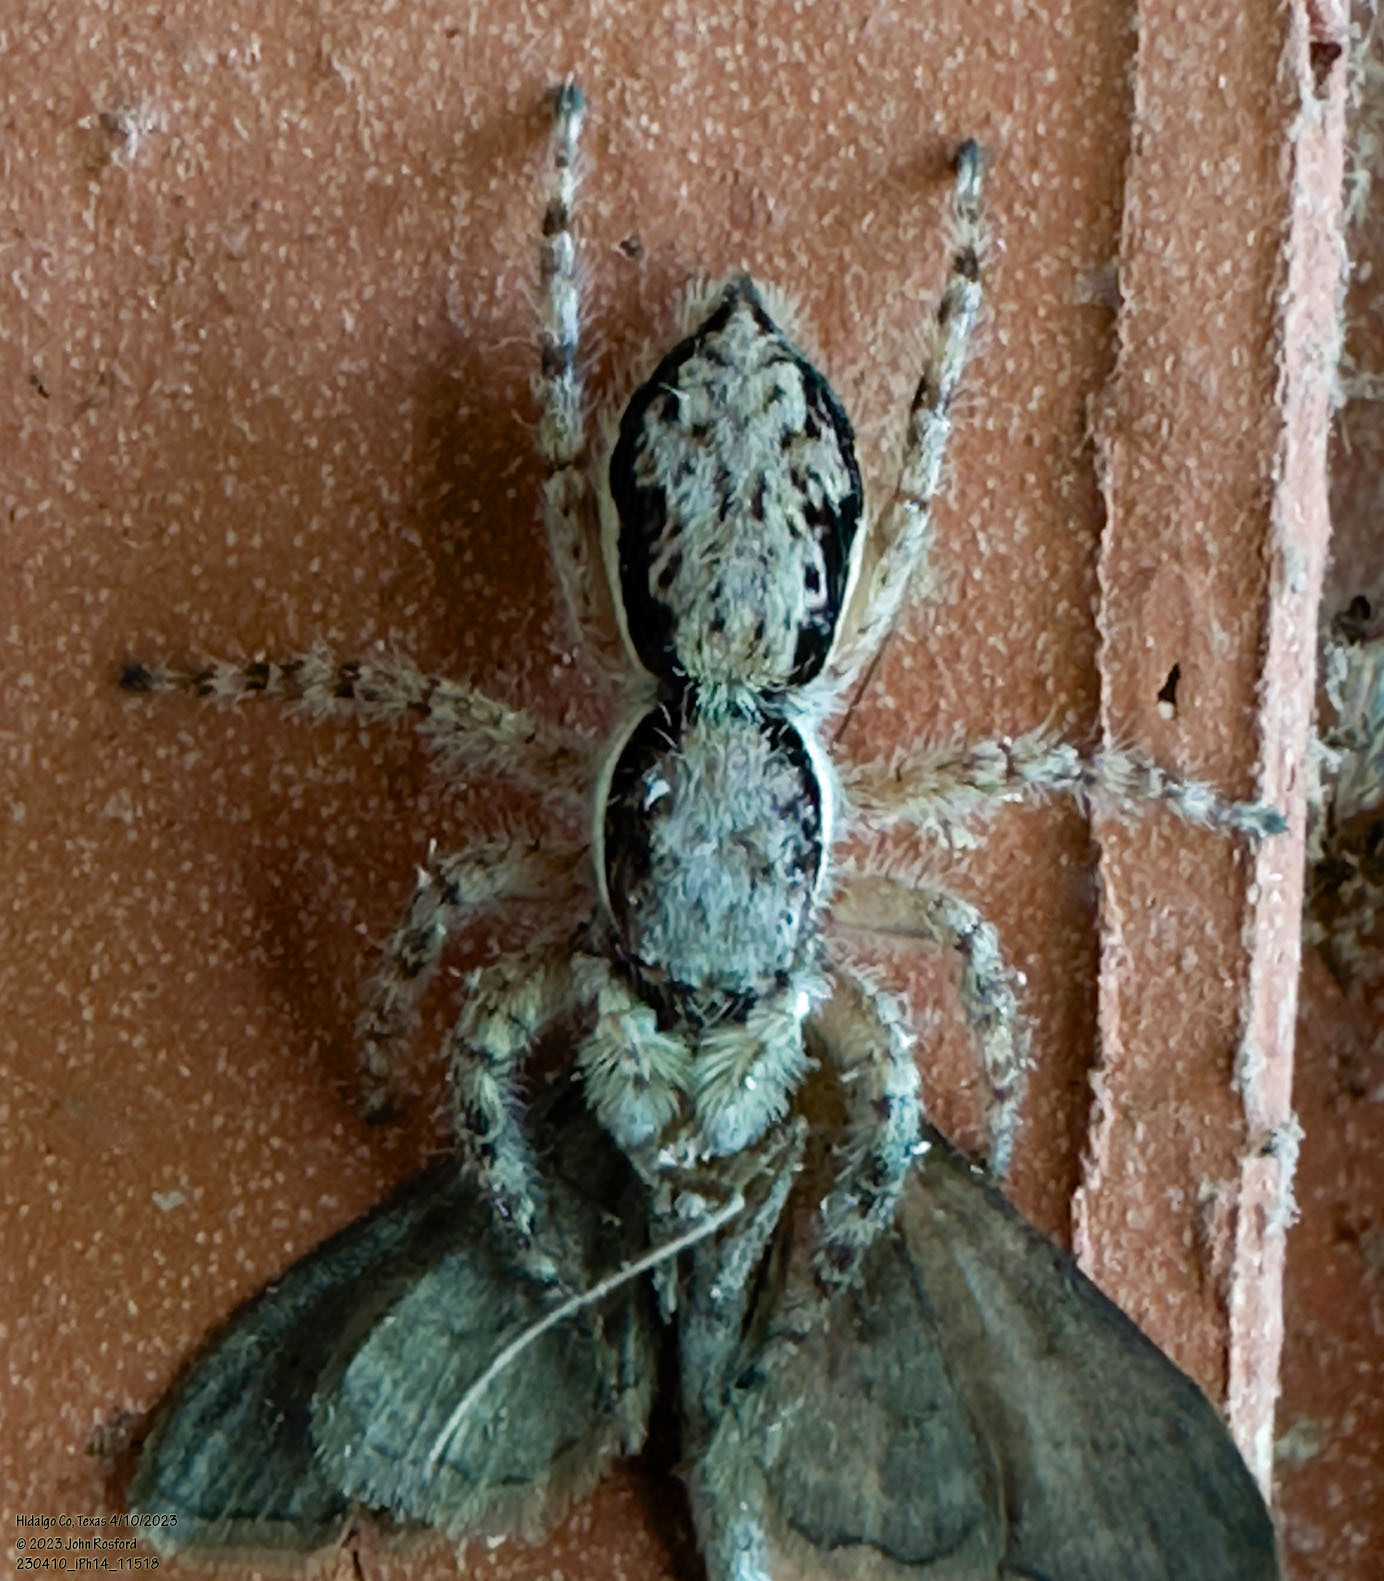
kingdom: Animalia
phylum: Arthropoda
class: Arachnida
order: Araneae
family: Salticidae
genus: Menemerus
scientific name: Menemerus bivittatus
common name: Gray wall jumper
